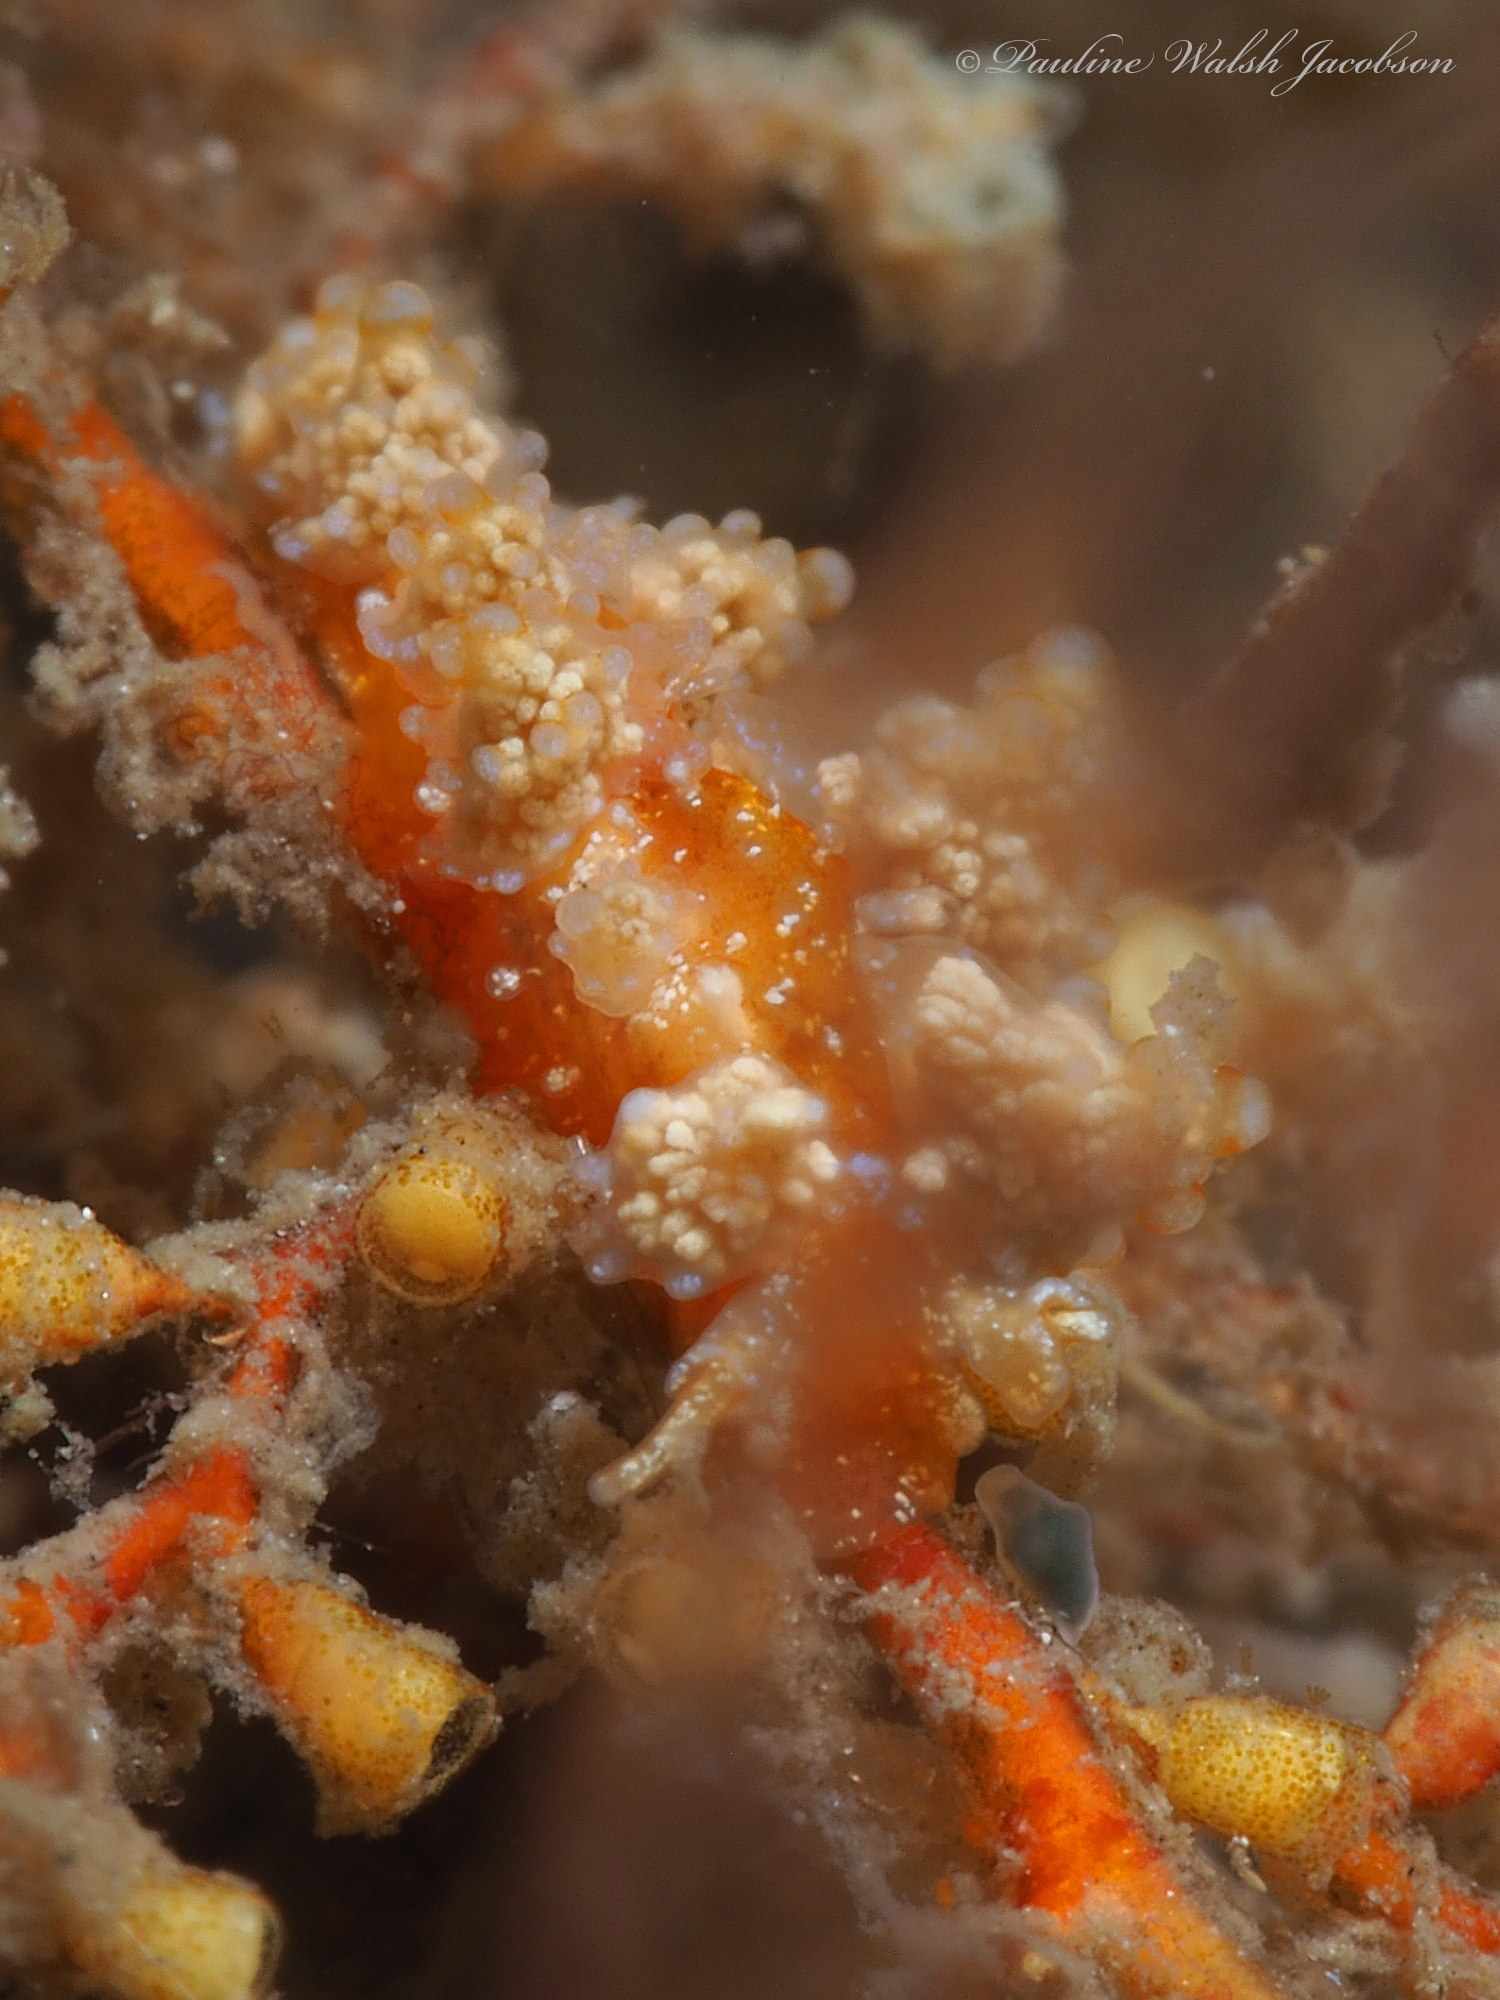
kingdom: Animalia
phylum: Mollusca
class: Gastropoda
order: Nudibranchia
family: Dotidae
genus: Doto
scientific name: Doto torrelavega
